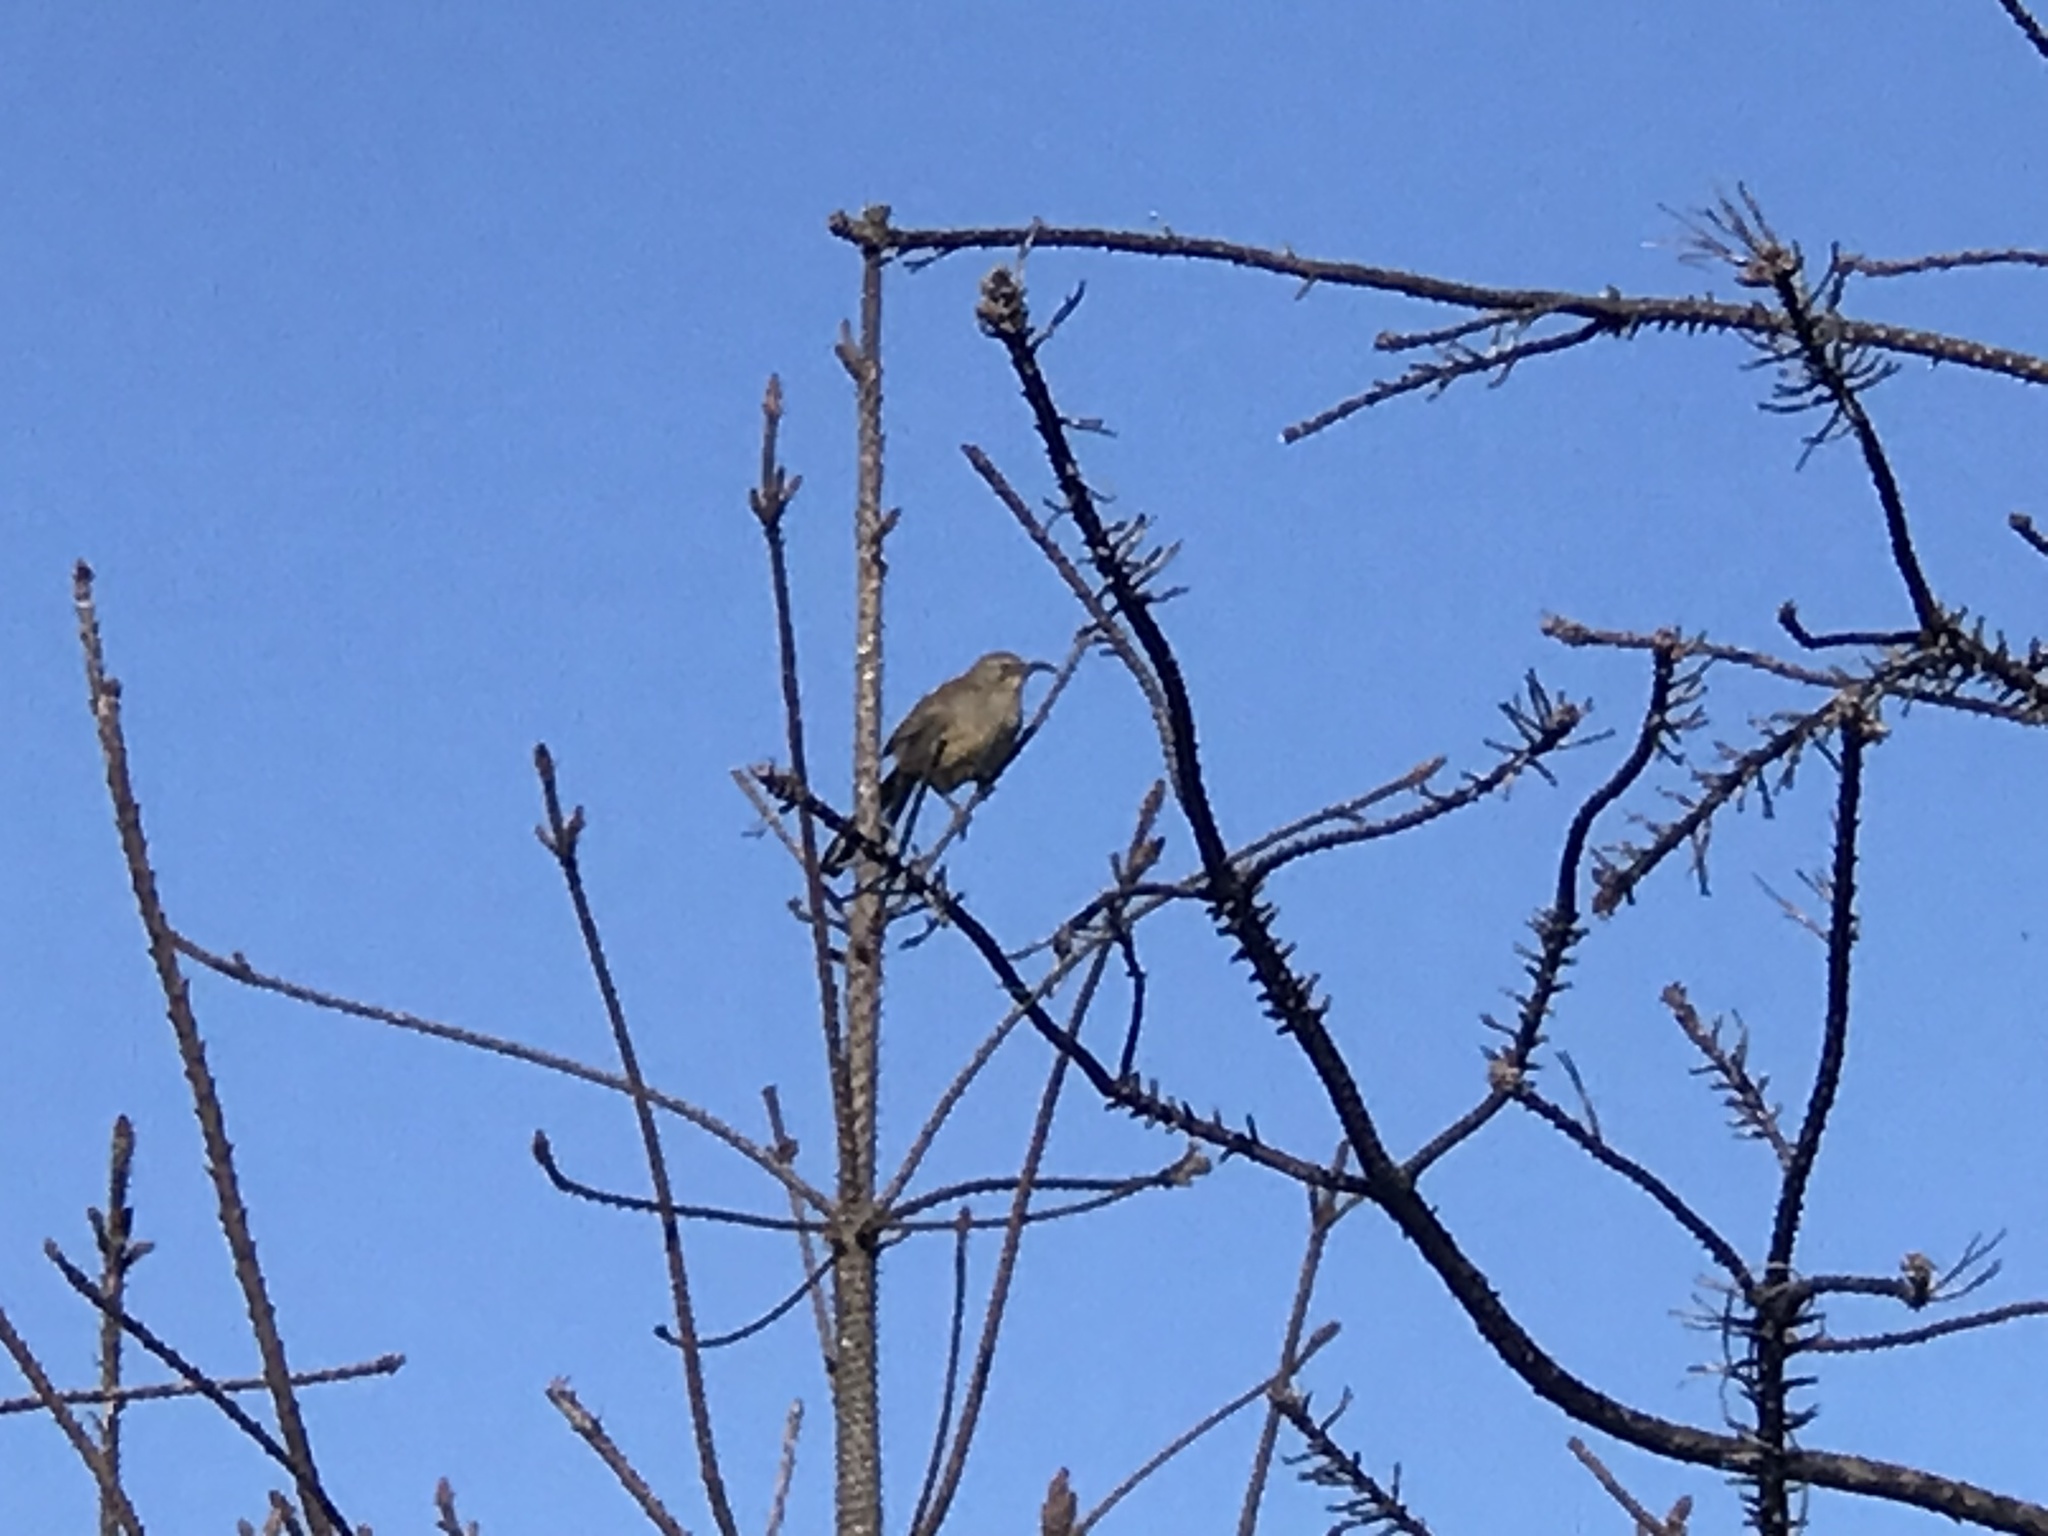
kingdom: Animalia
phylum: Chordata
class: Aves
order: Passeriformes
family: Mimidae
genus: Toxostoma
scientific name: Toxostoma redivivum
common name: California thrasher
